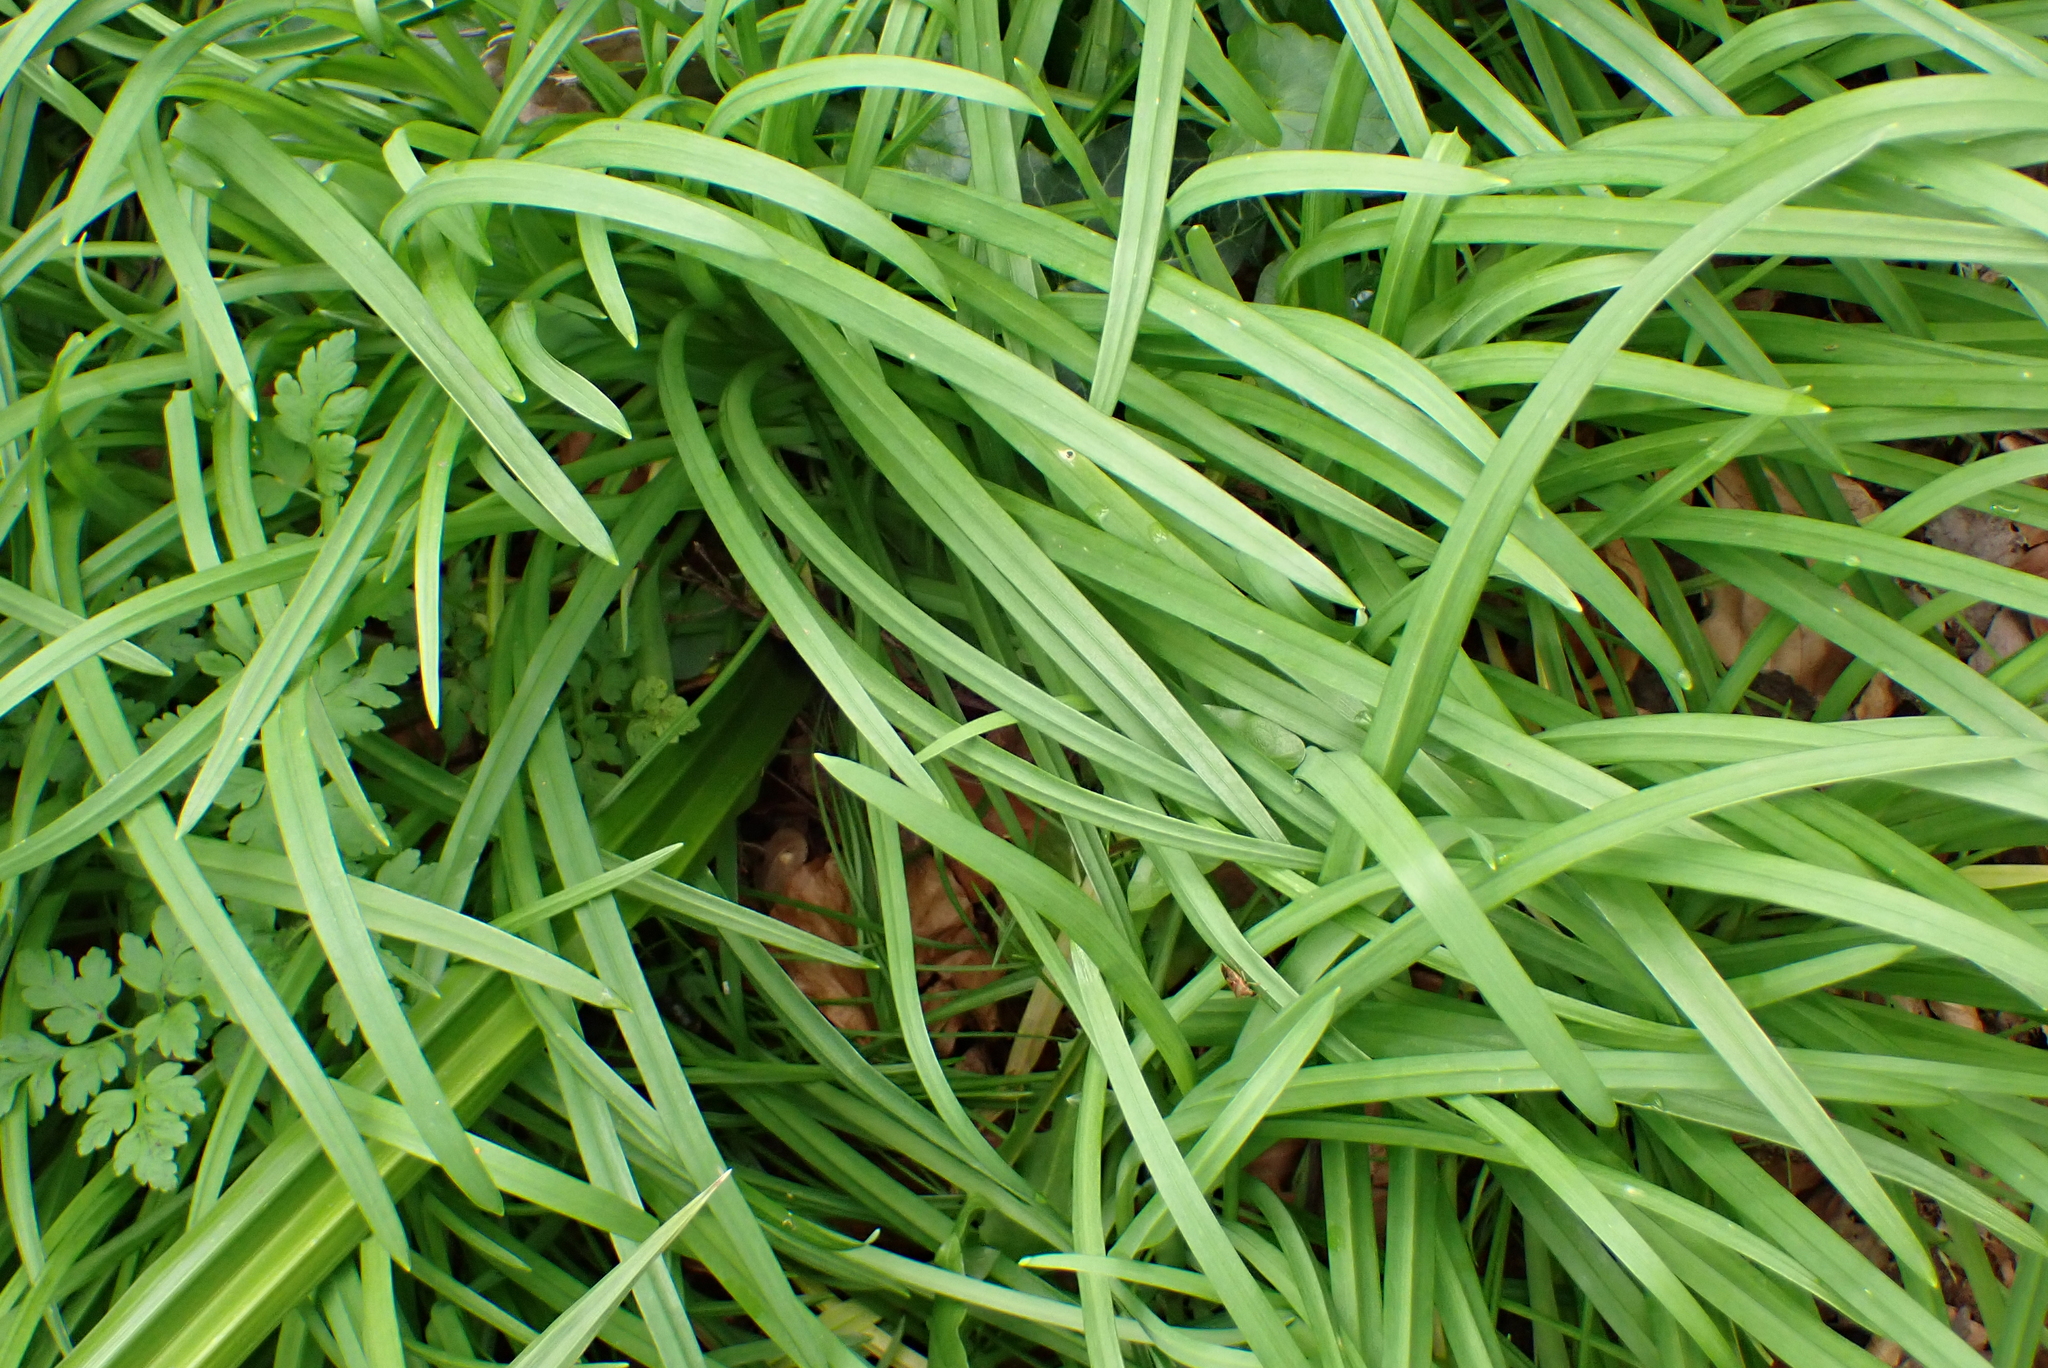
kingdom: Plantae
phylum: Tracheophyta
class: Liliopsida
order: Asparagales
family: Amaryllidaceae
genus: Allium
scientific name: Allium triquetrum
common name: Three-cornered garlic
